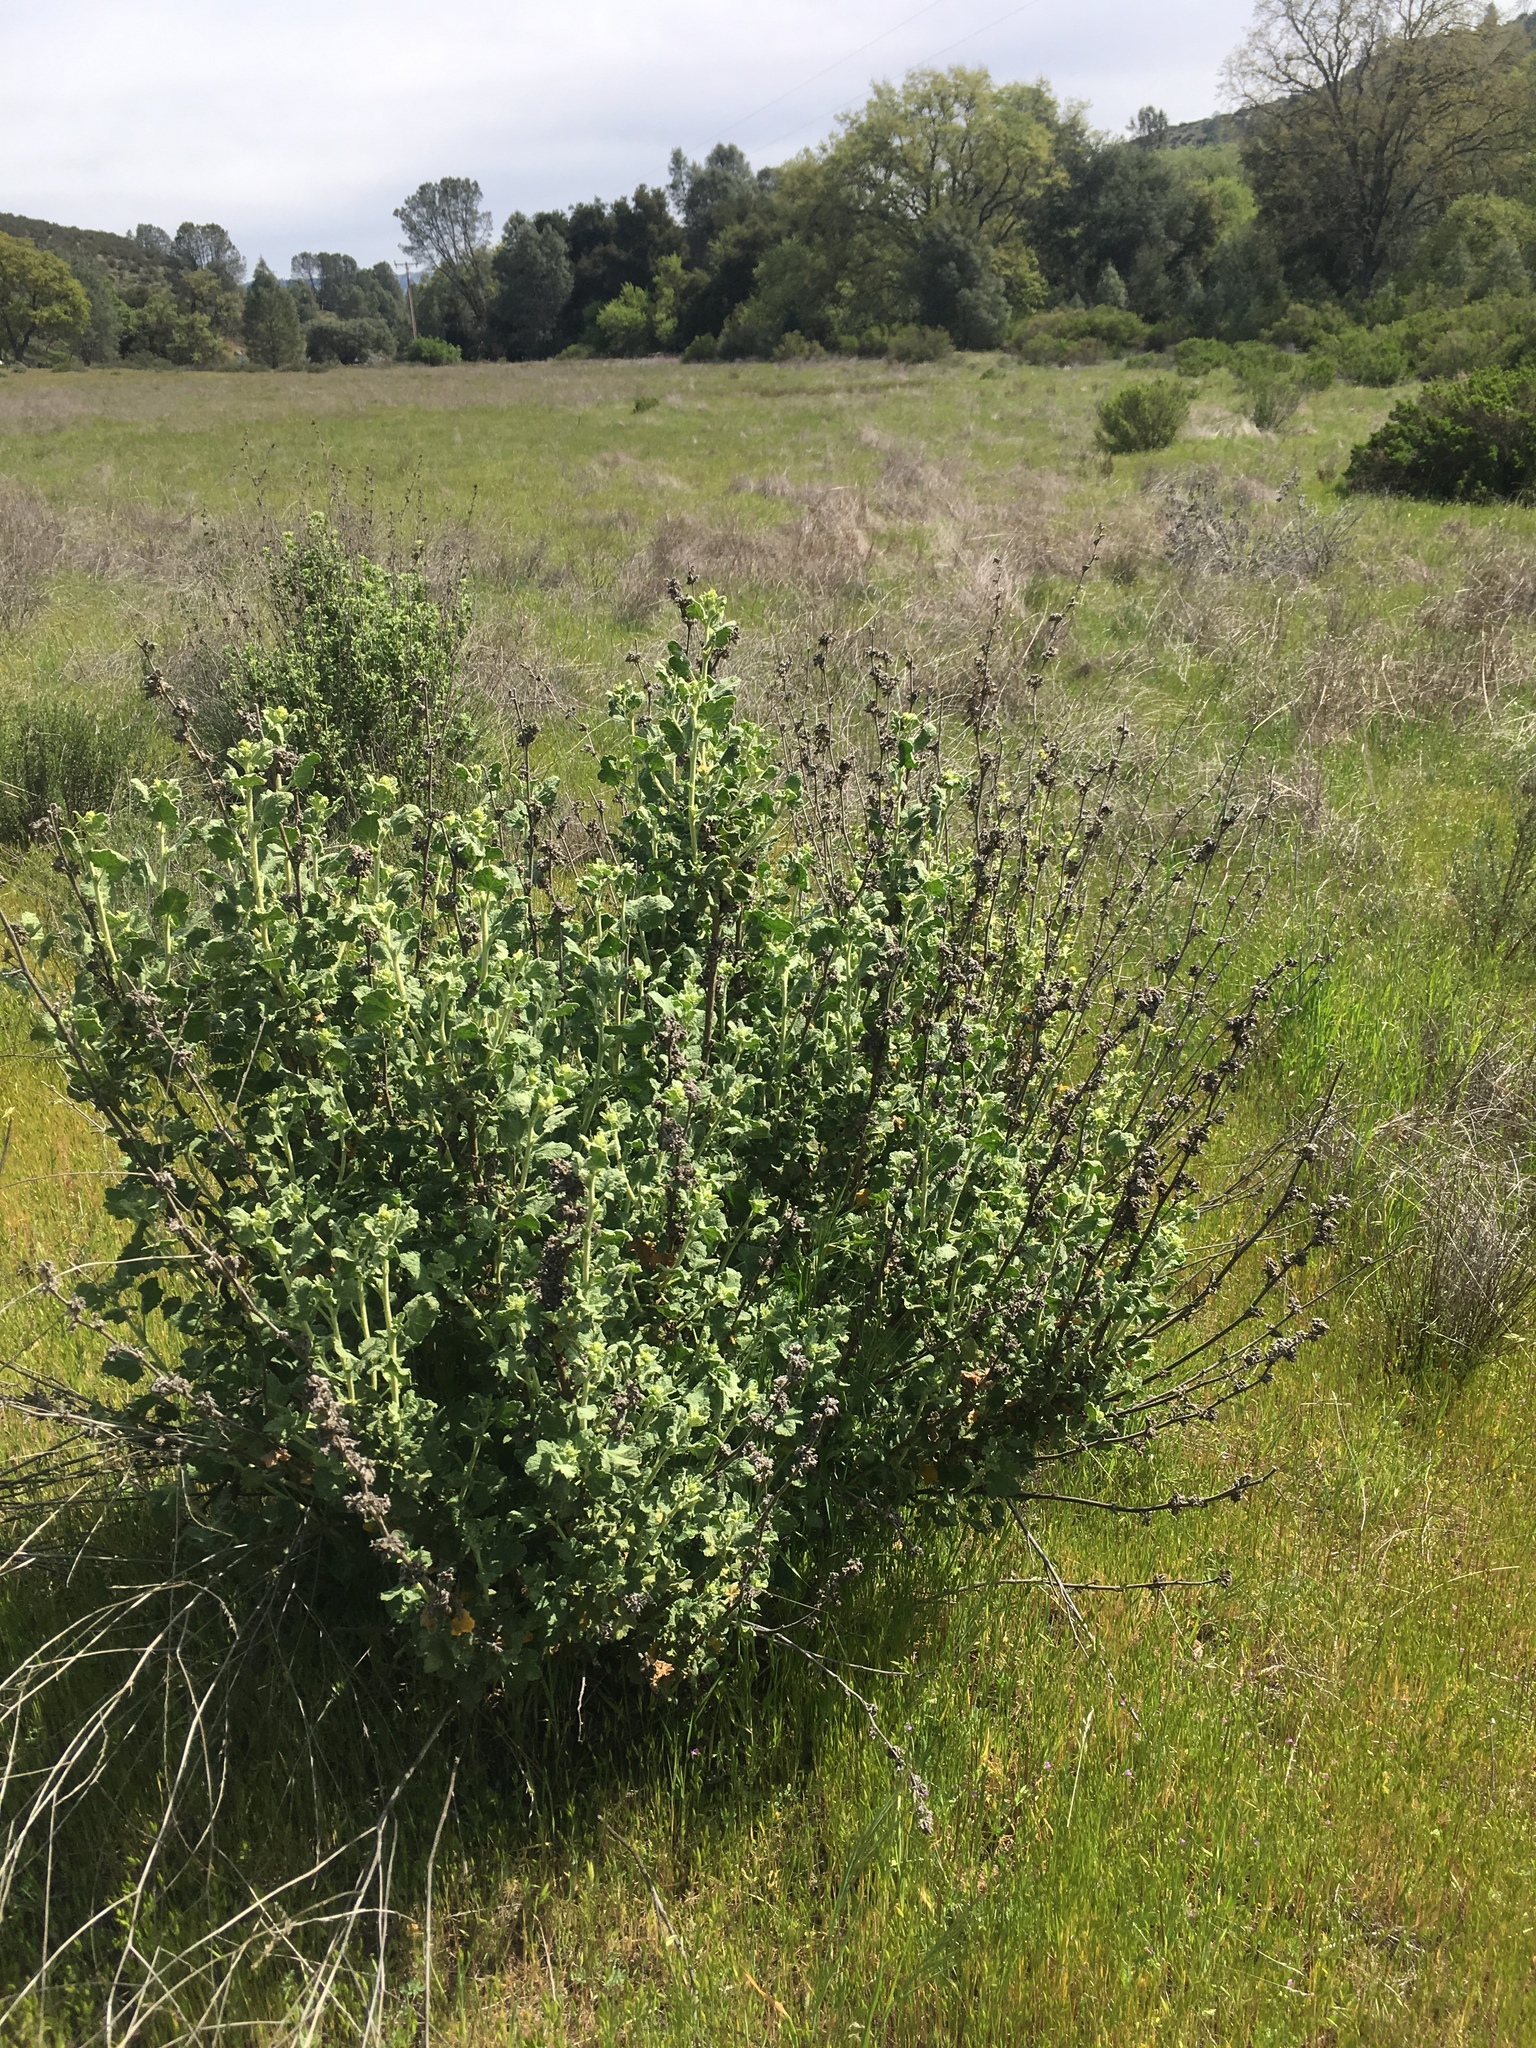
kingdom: Plantae
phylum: Tracheophyta
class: Magnoliopsida
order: Malvales
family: Malvaceae
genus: Malacothamnus
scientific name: Malacothamnus aboriginum
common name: Indian valley bush-mallow
